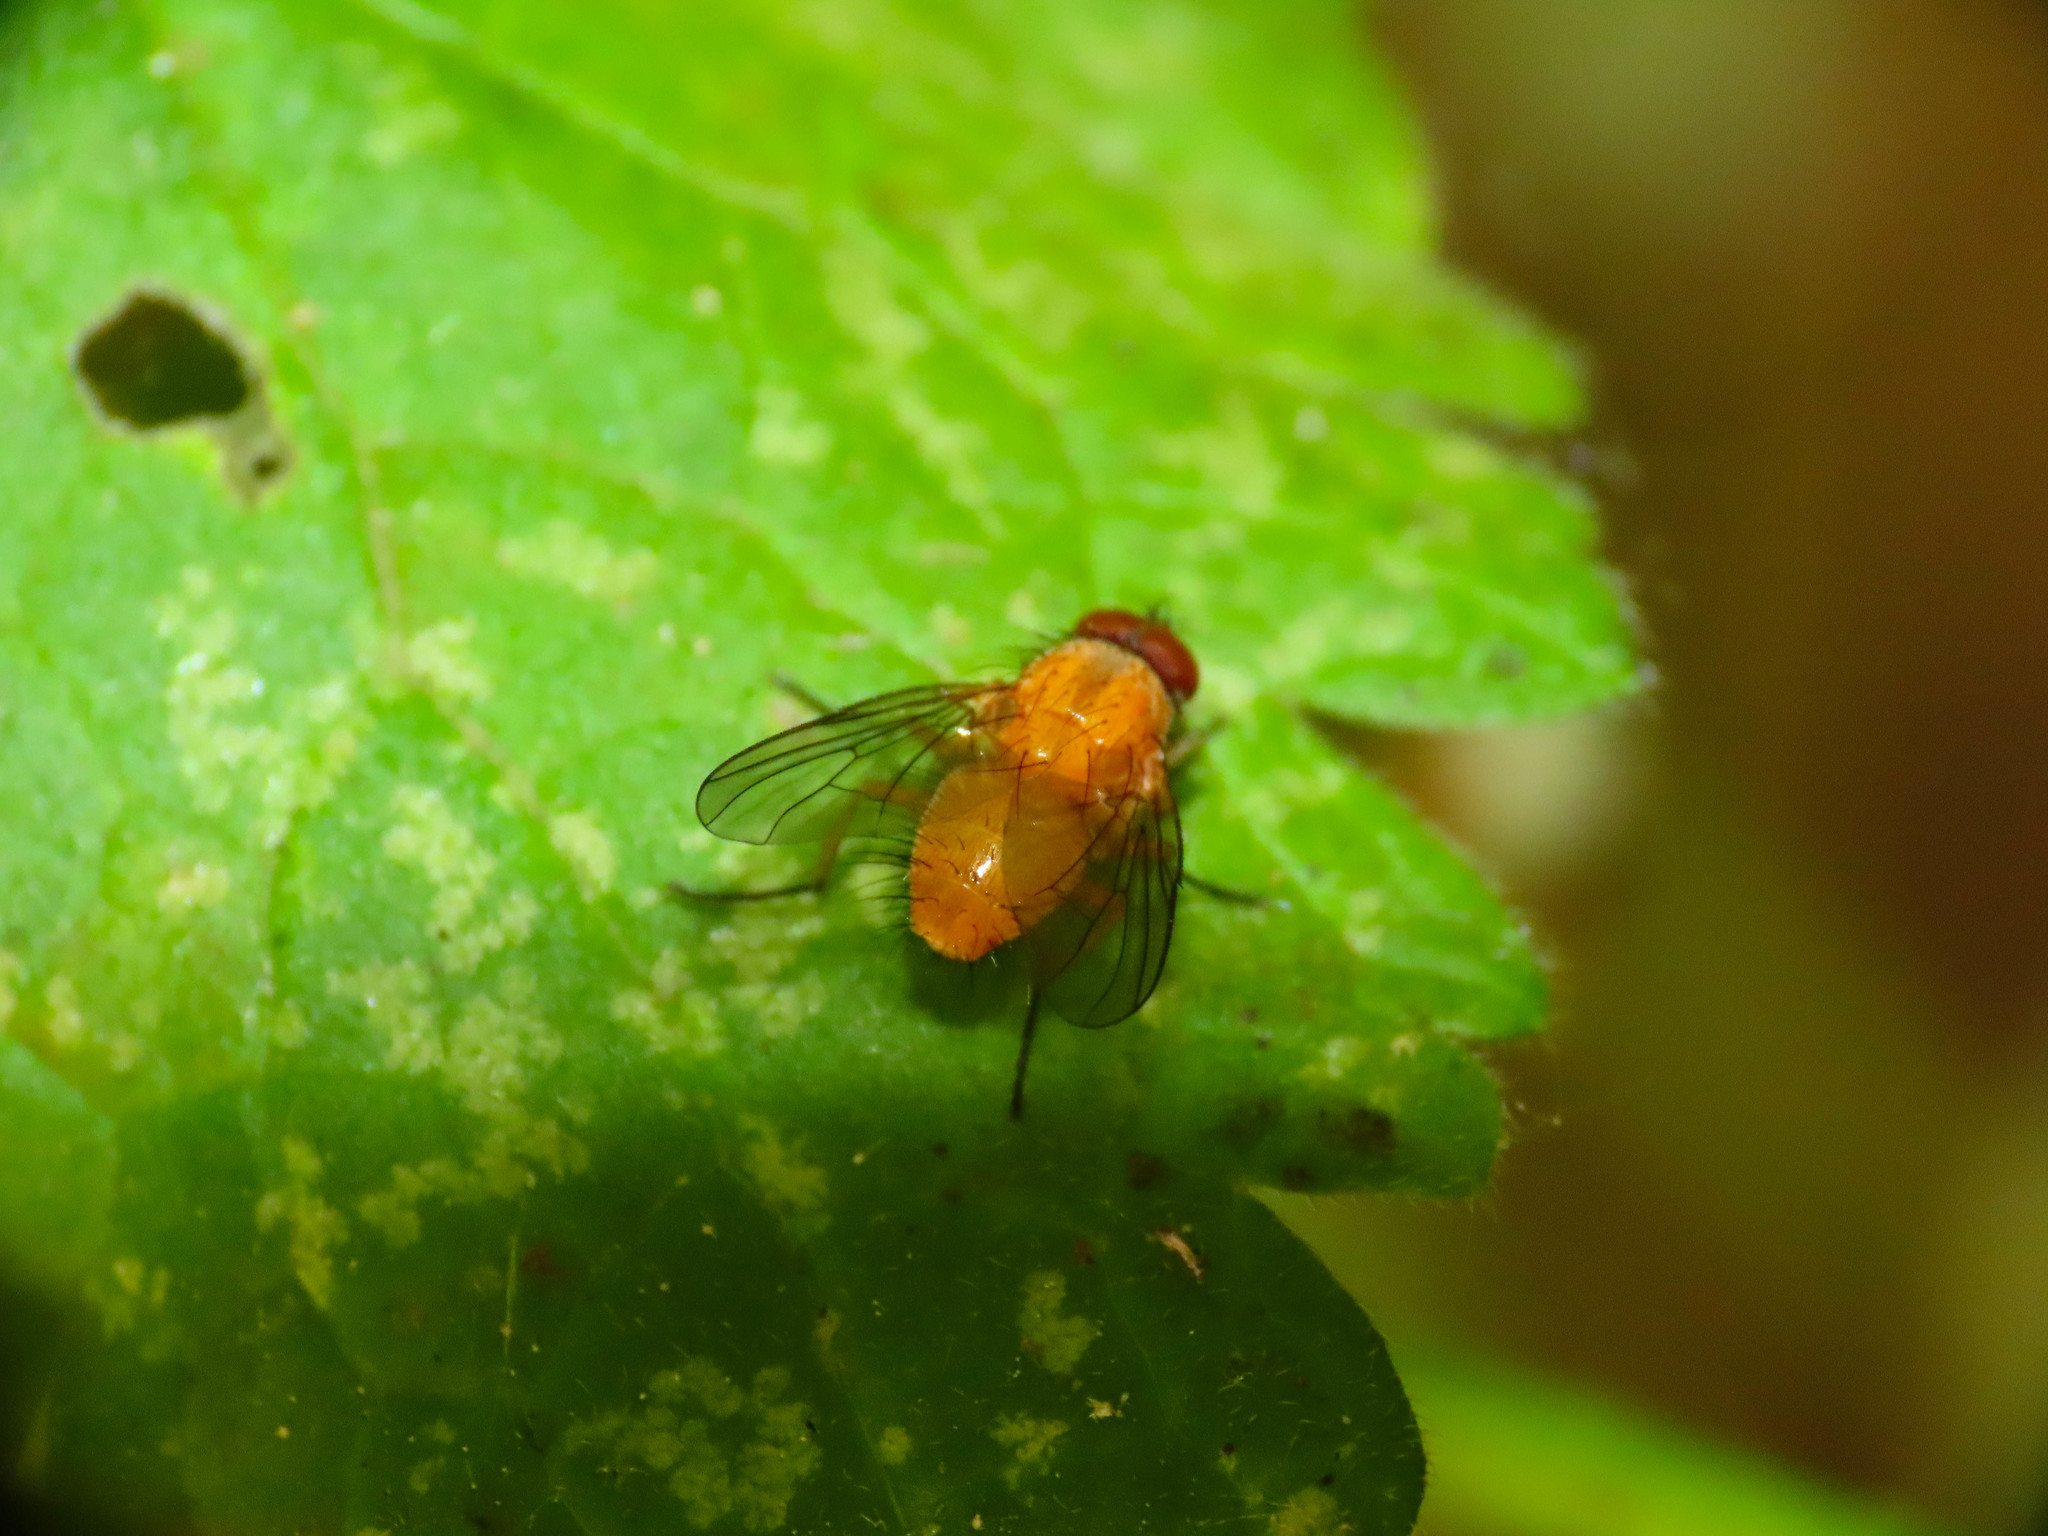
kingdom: Animalia
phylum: Arthropoda
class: Insecta
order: Diptera
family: Muscidae
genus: Phaonia
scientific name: Phaonia pallida
